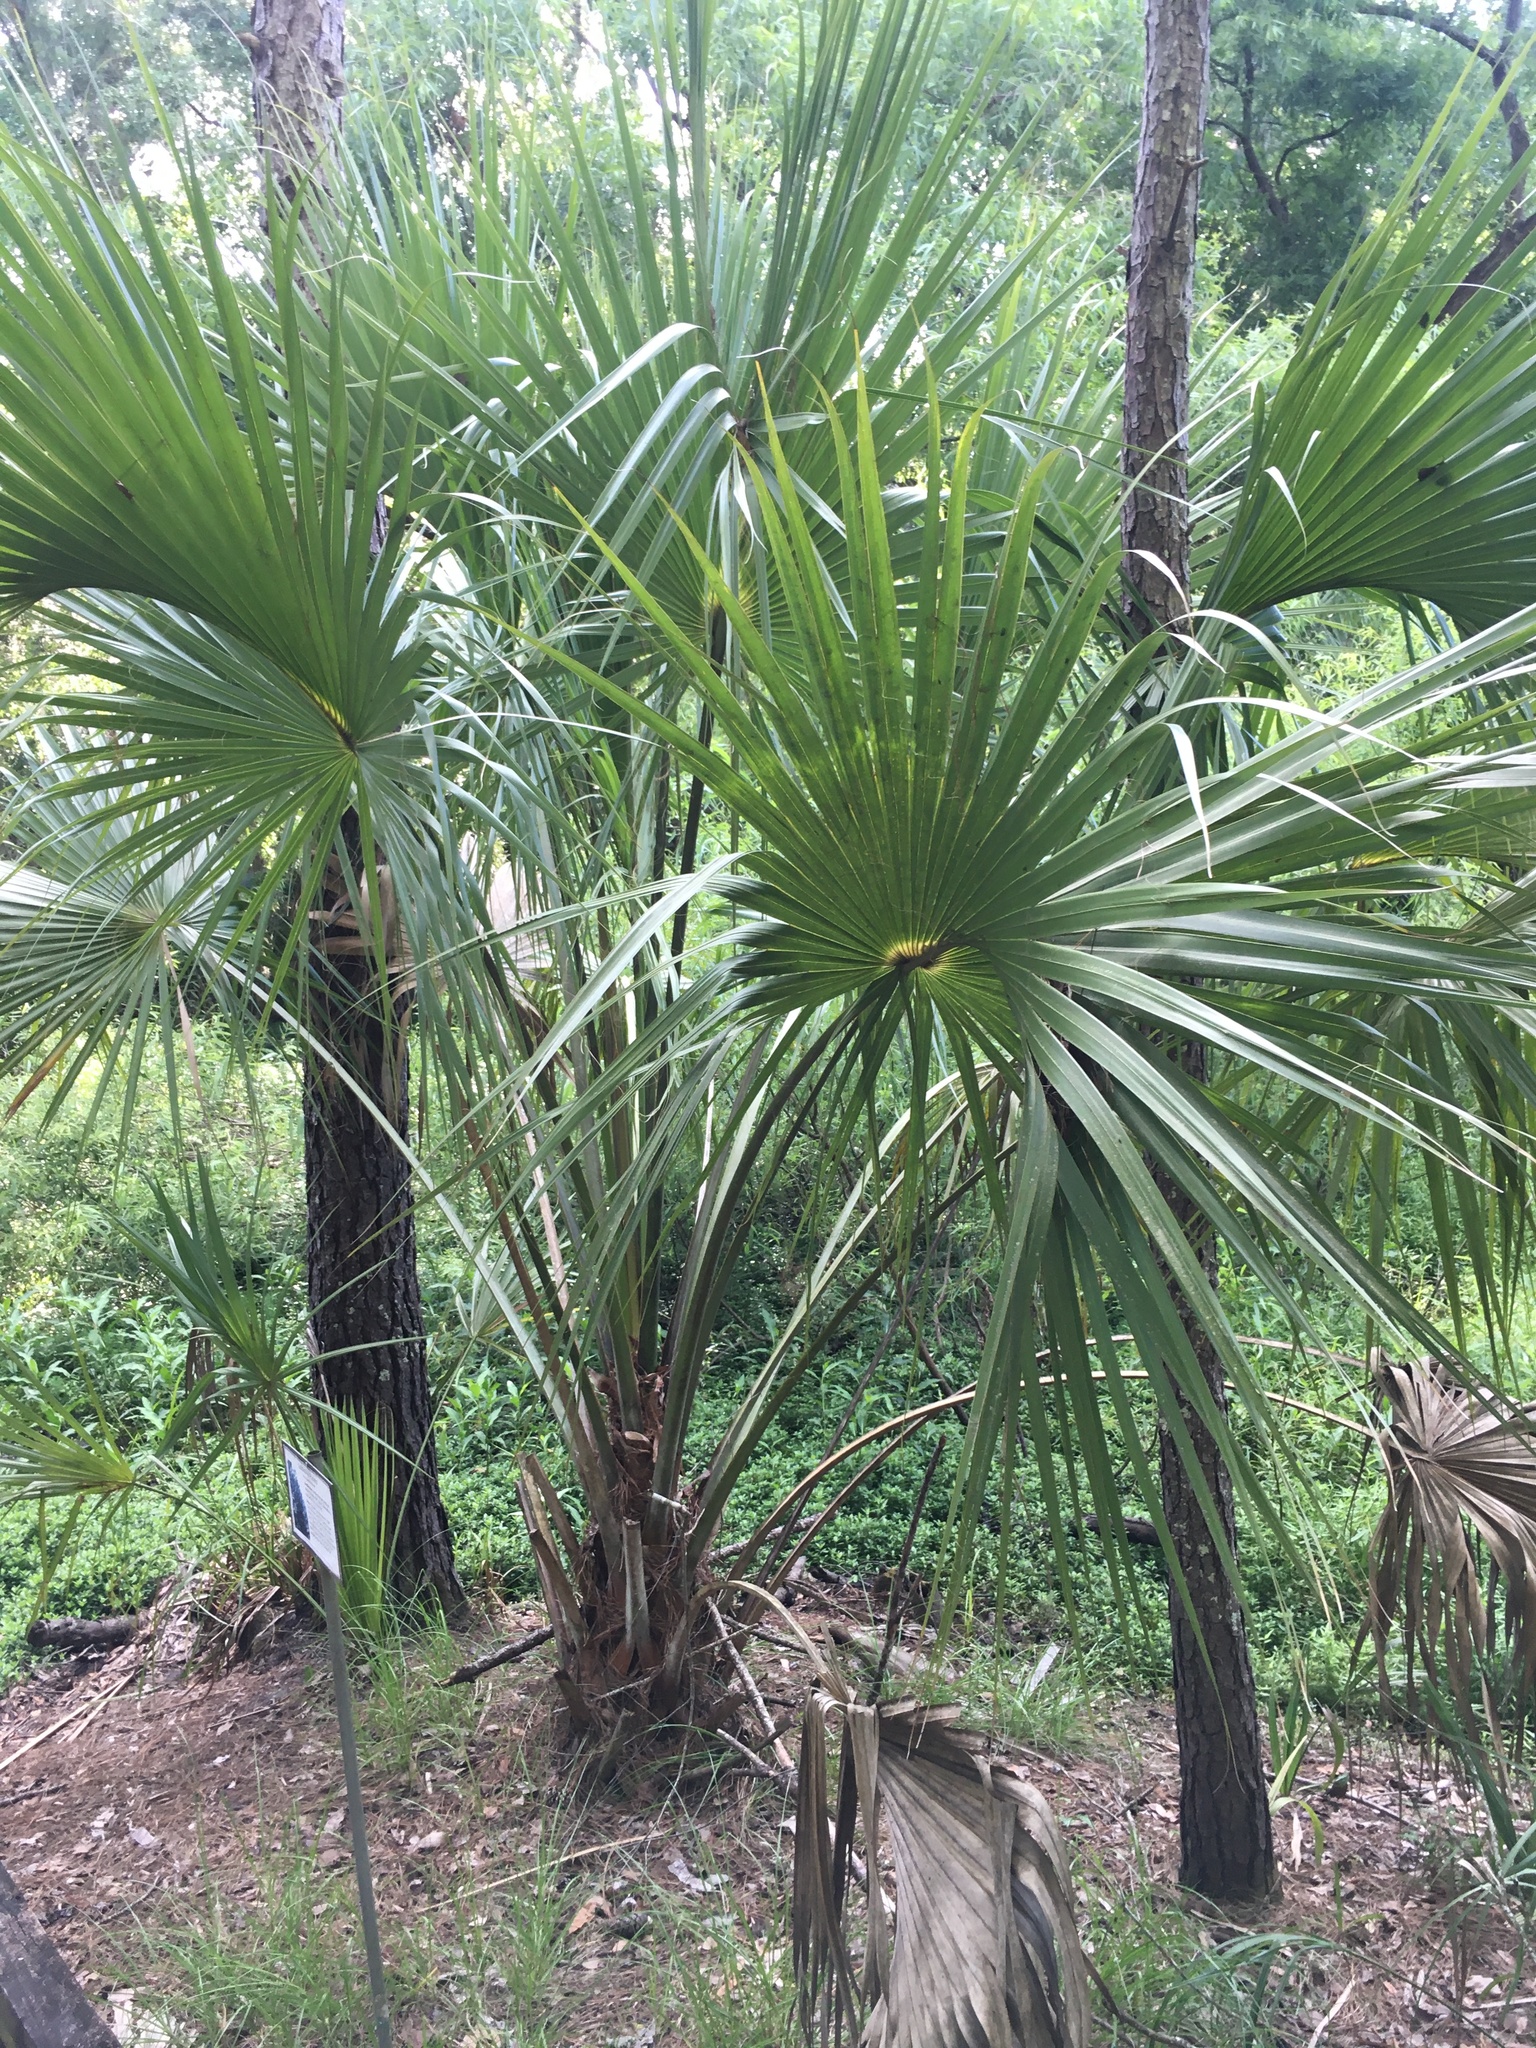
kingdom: Plantae
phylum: Tracheophyta
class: Liliopsida
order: Arecales
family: Arecaceae
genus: Sabal
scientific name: Sabal palmetto
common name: Blue palmetto
